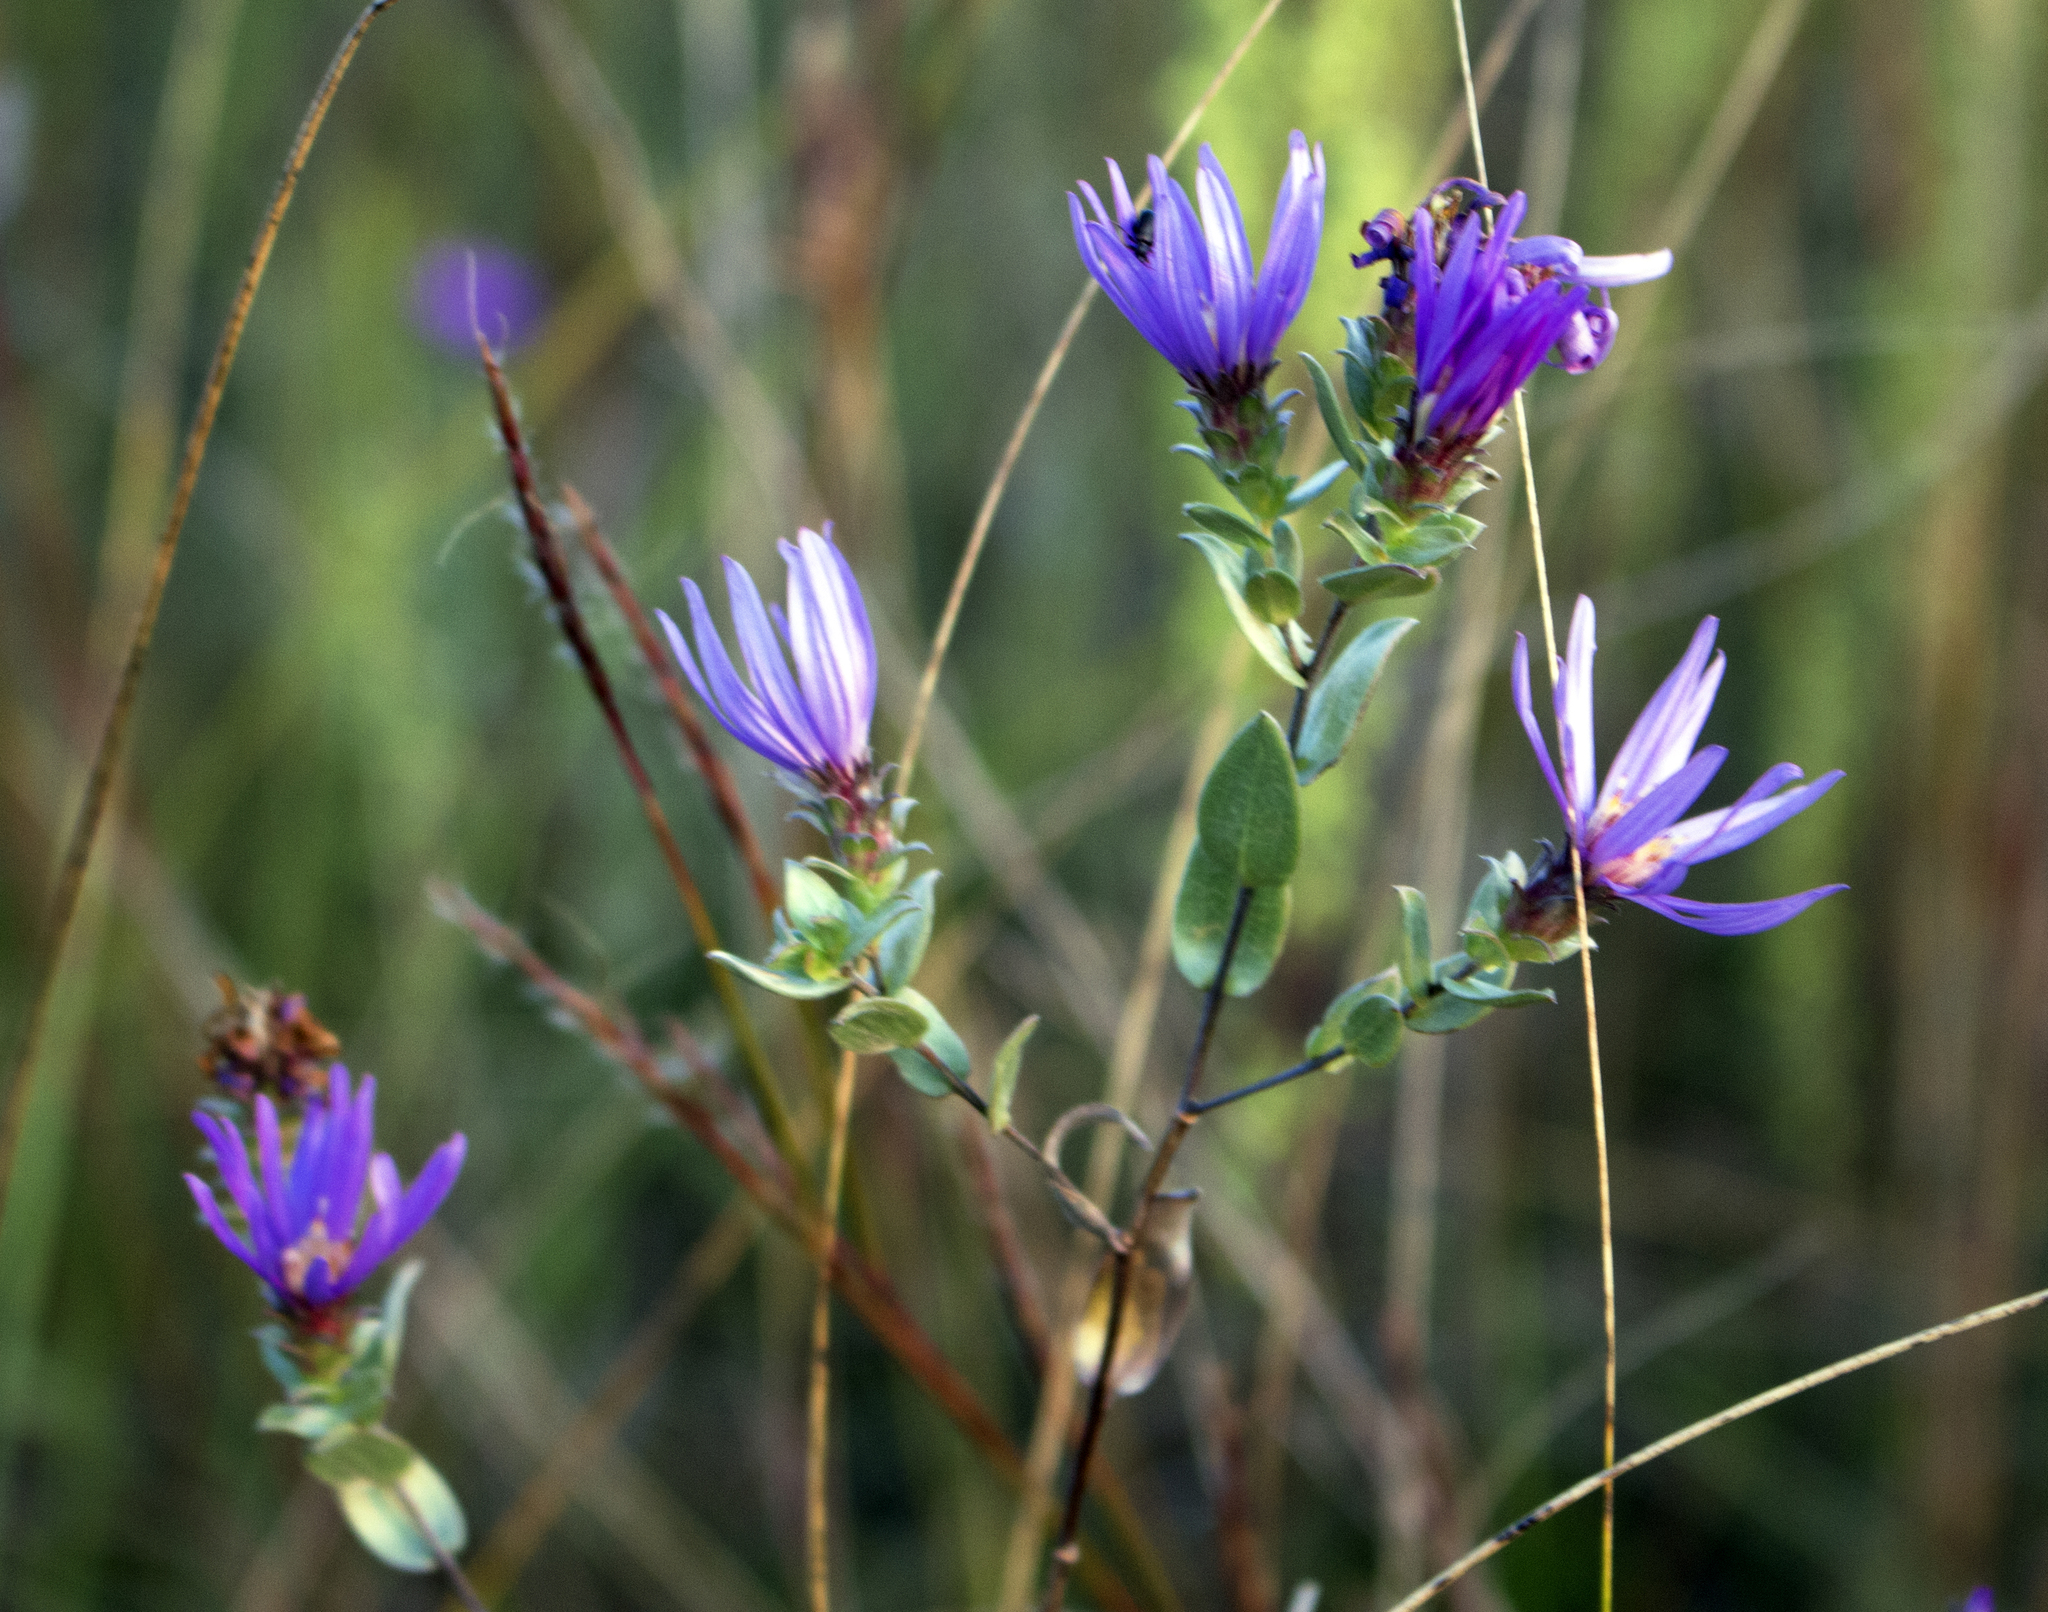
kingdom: Plantae
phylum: Tracheophyta
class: Magnoliopsida
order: Asterales
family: Asteraceae
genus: Symphyotrichum
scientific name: Symphyotrichum sericeum
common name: Silky aster
